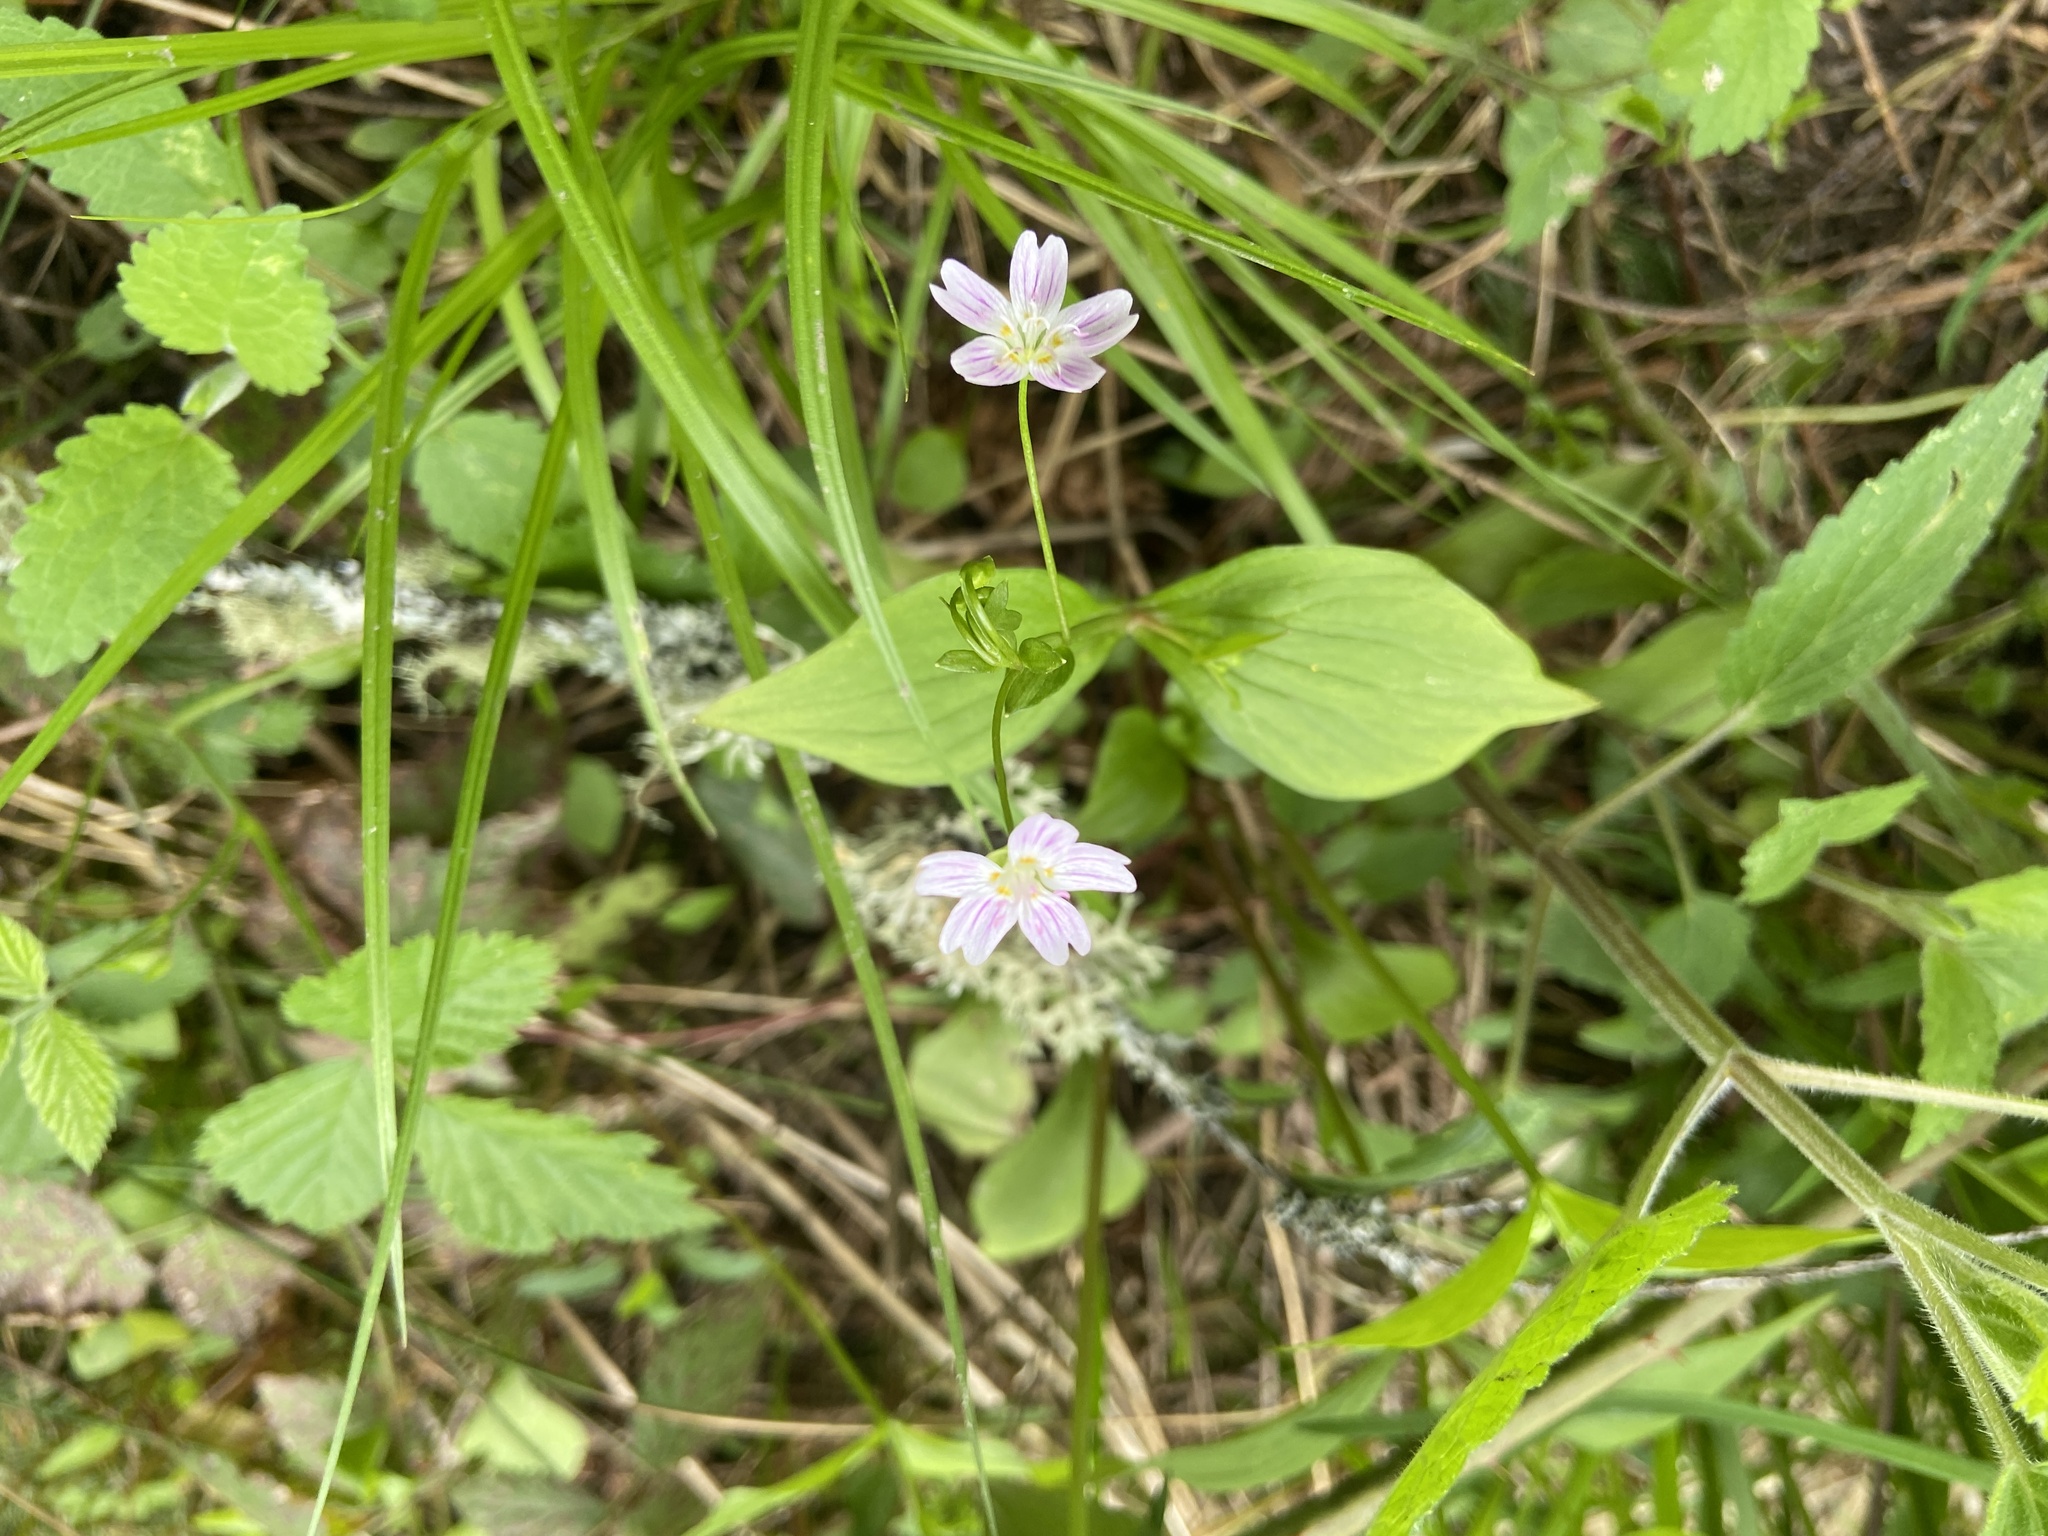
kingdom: Plantae
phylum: Tracheophyta
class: Magnoliopsida
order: Caryophyllales
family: Montiaceae
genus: Claytonia
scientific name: Claytonia sibirica
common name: Pink purslane
